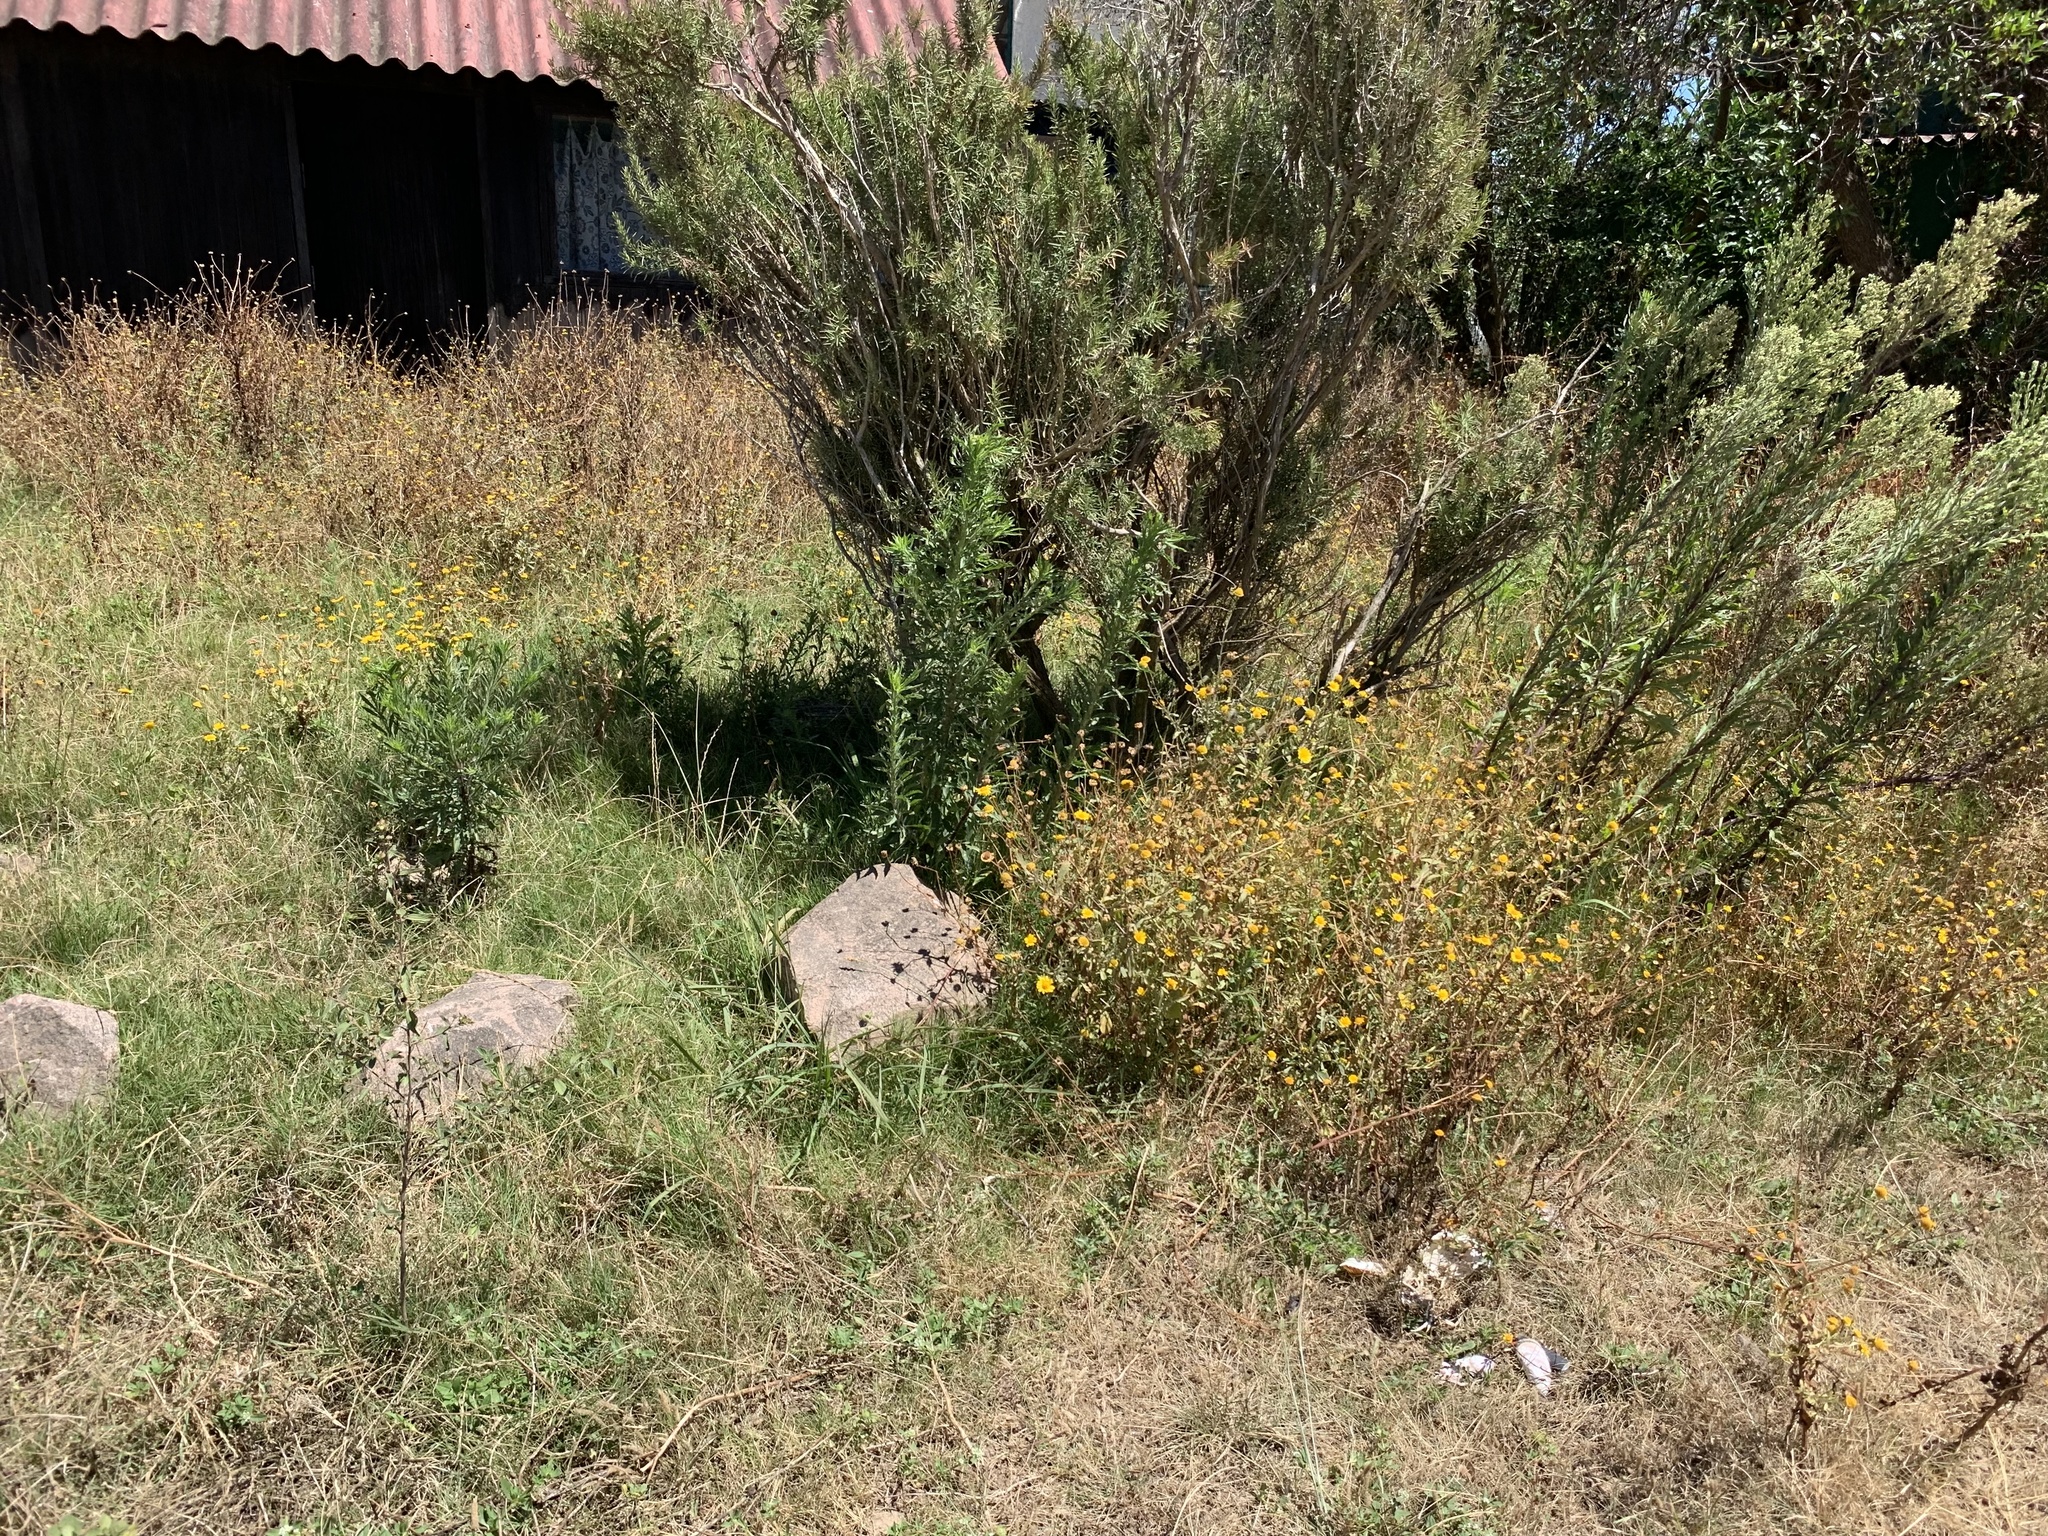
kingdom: Plantae
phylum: Tracheophyta
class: Magnoliopsida
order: Asterales
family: Asteraceae
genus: Coleostephus
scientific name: Coleostephus myconis
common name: Mediterranean marigold
